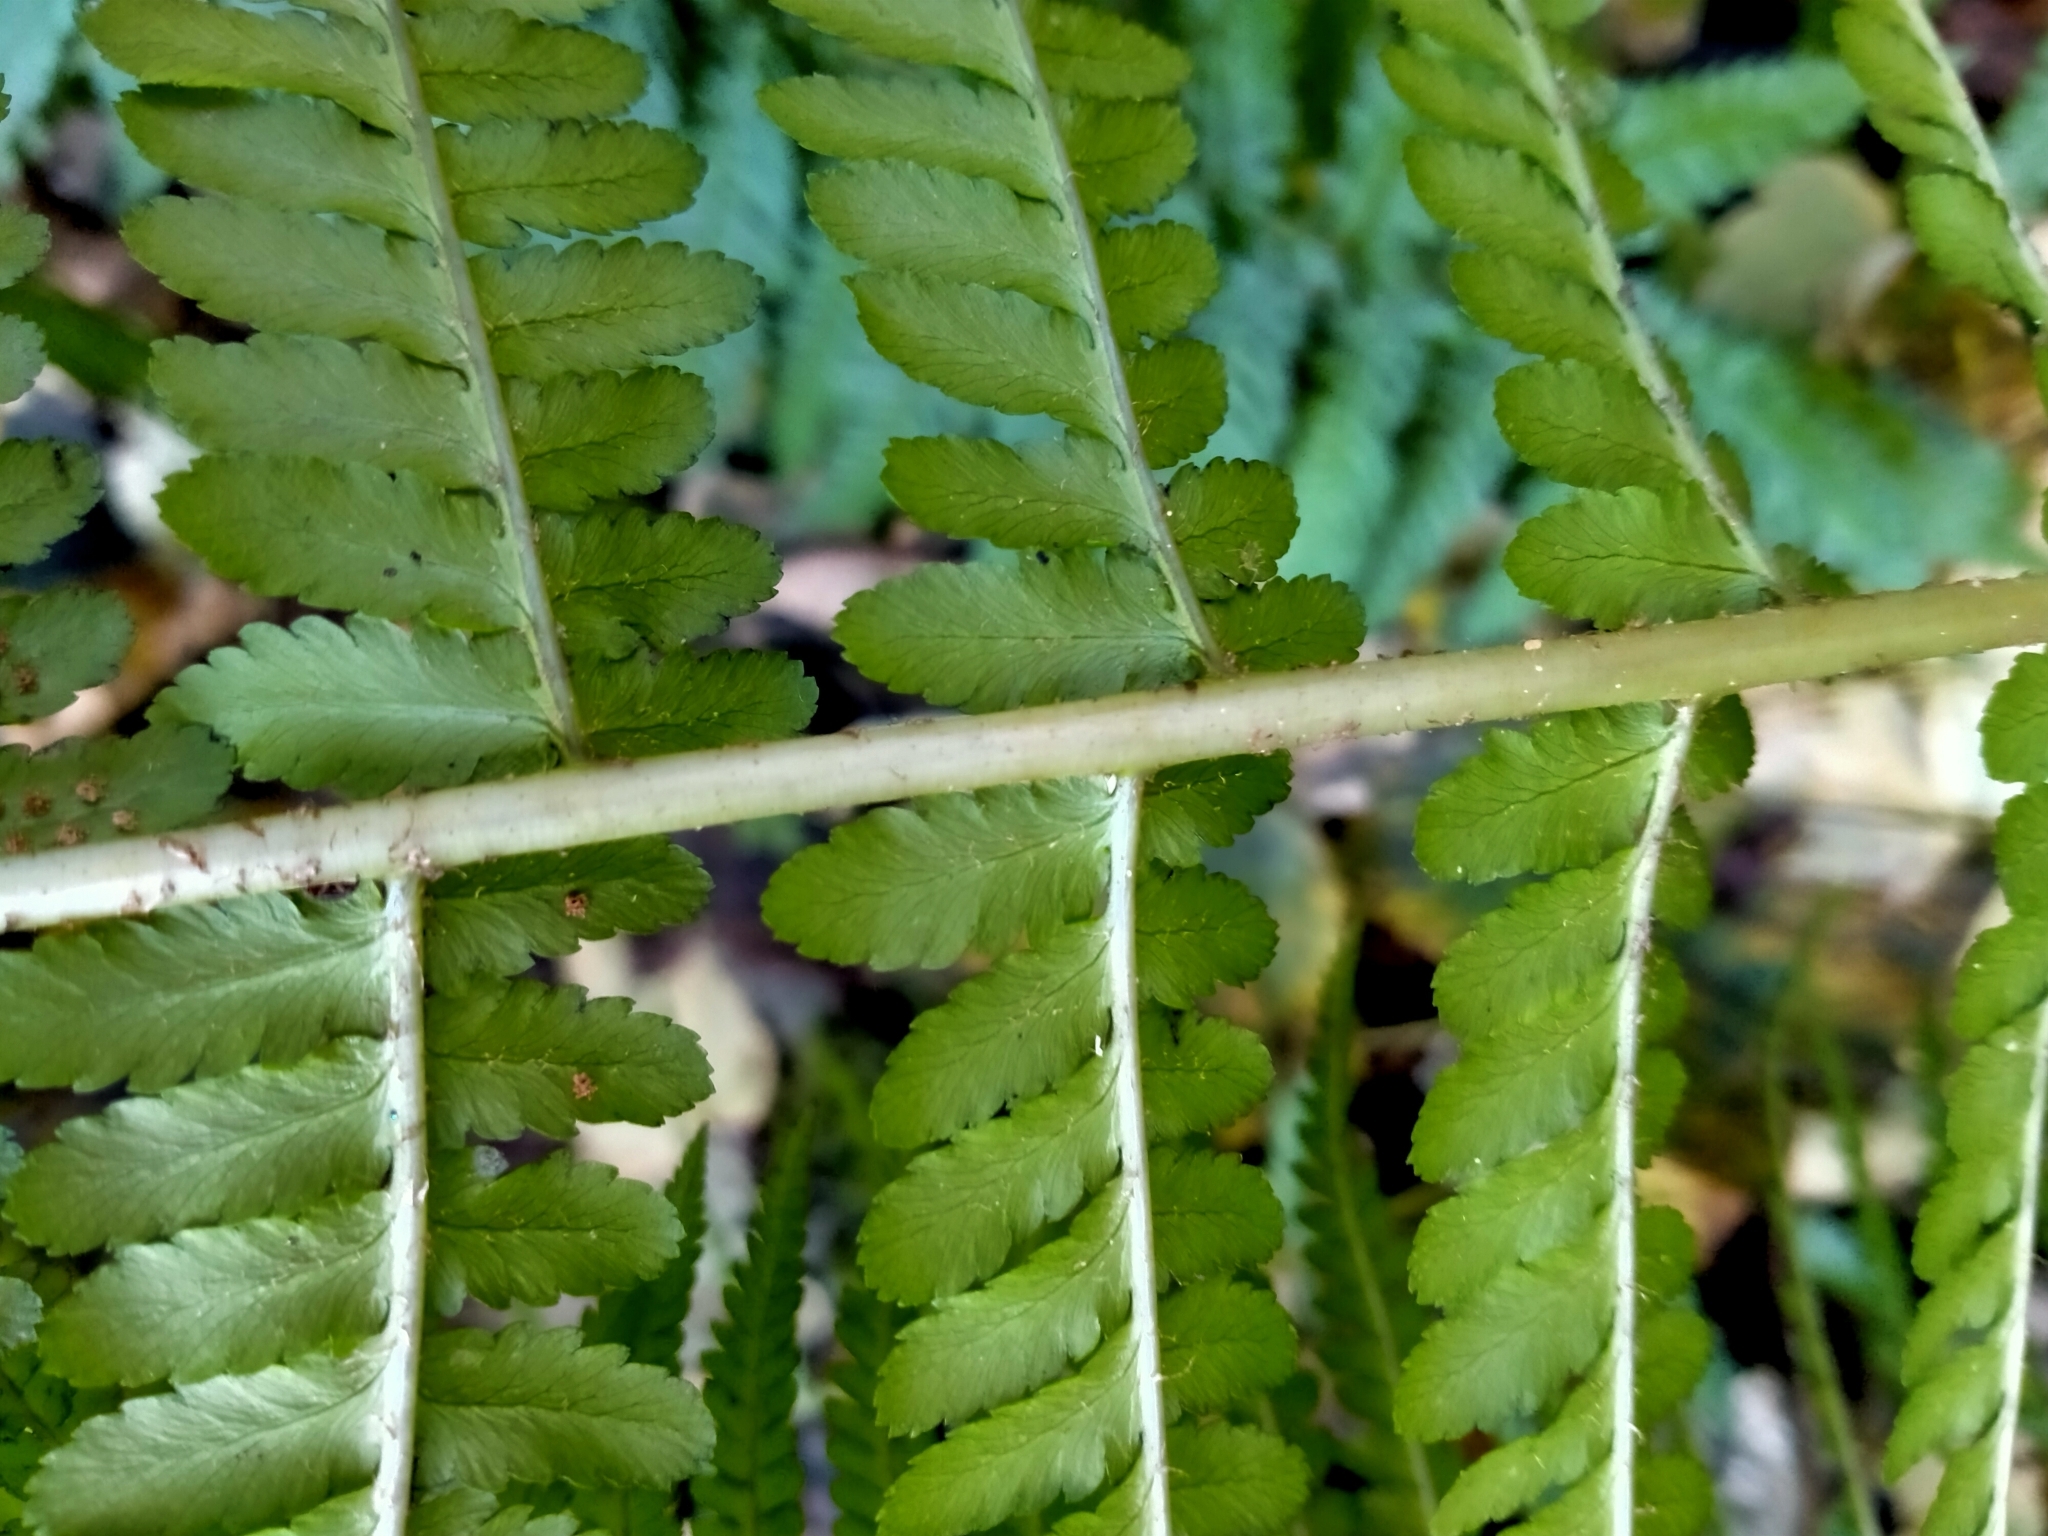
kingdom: Plantae
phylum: Tracheophyta
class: Polypodiopsida
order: Polypodiales
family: Dryopteridaceae
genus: Dryopteris
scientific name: Dryopteris filix-mas
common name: Male fern
